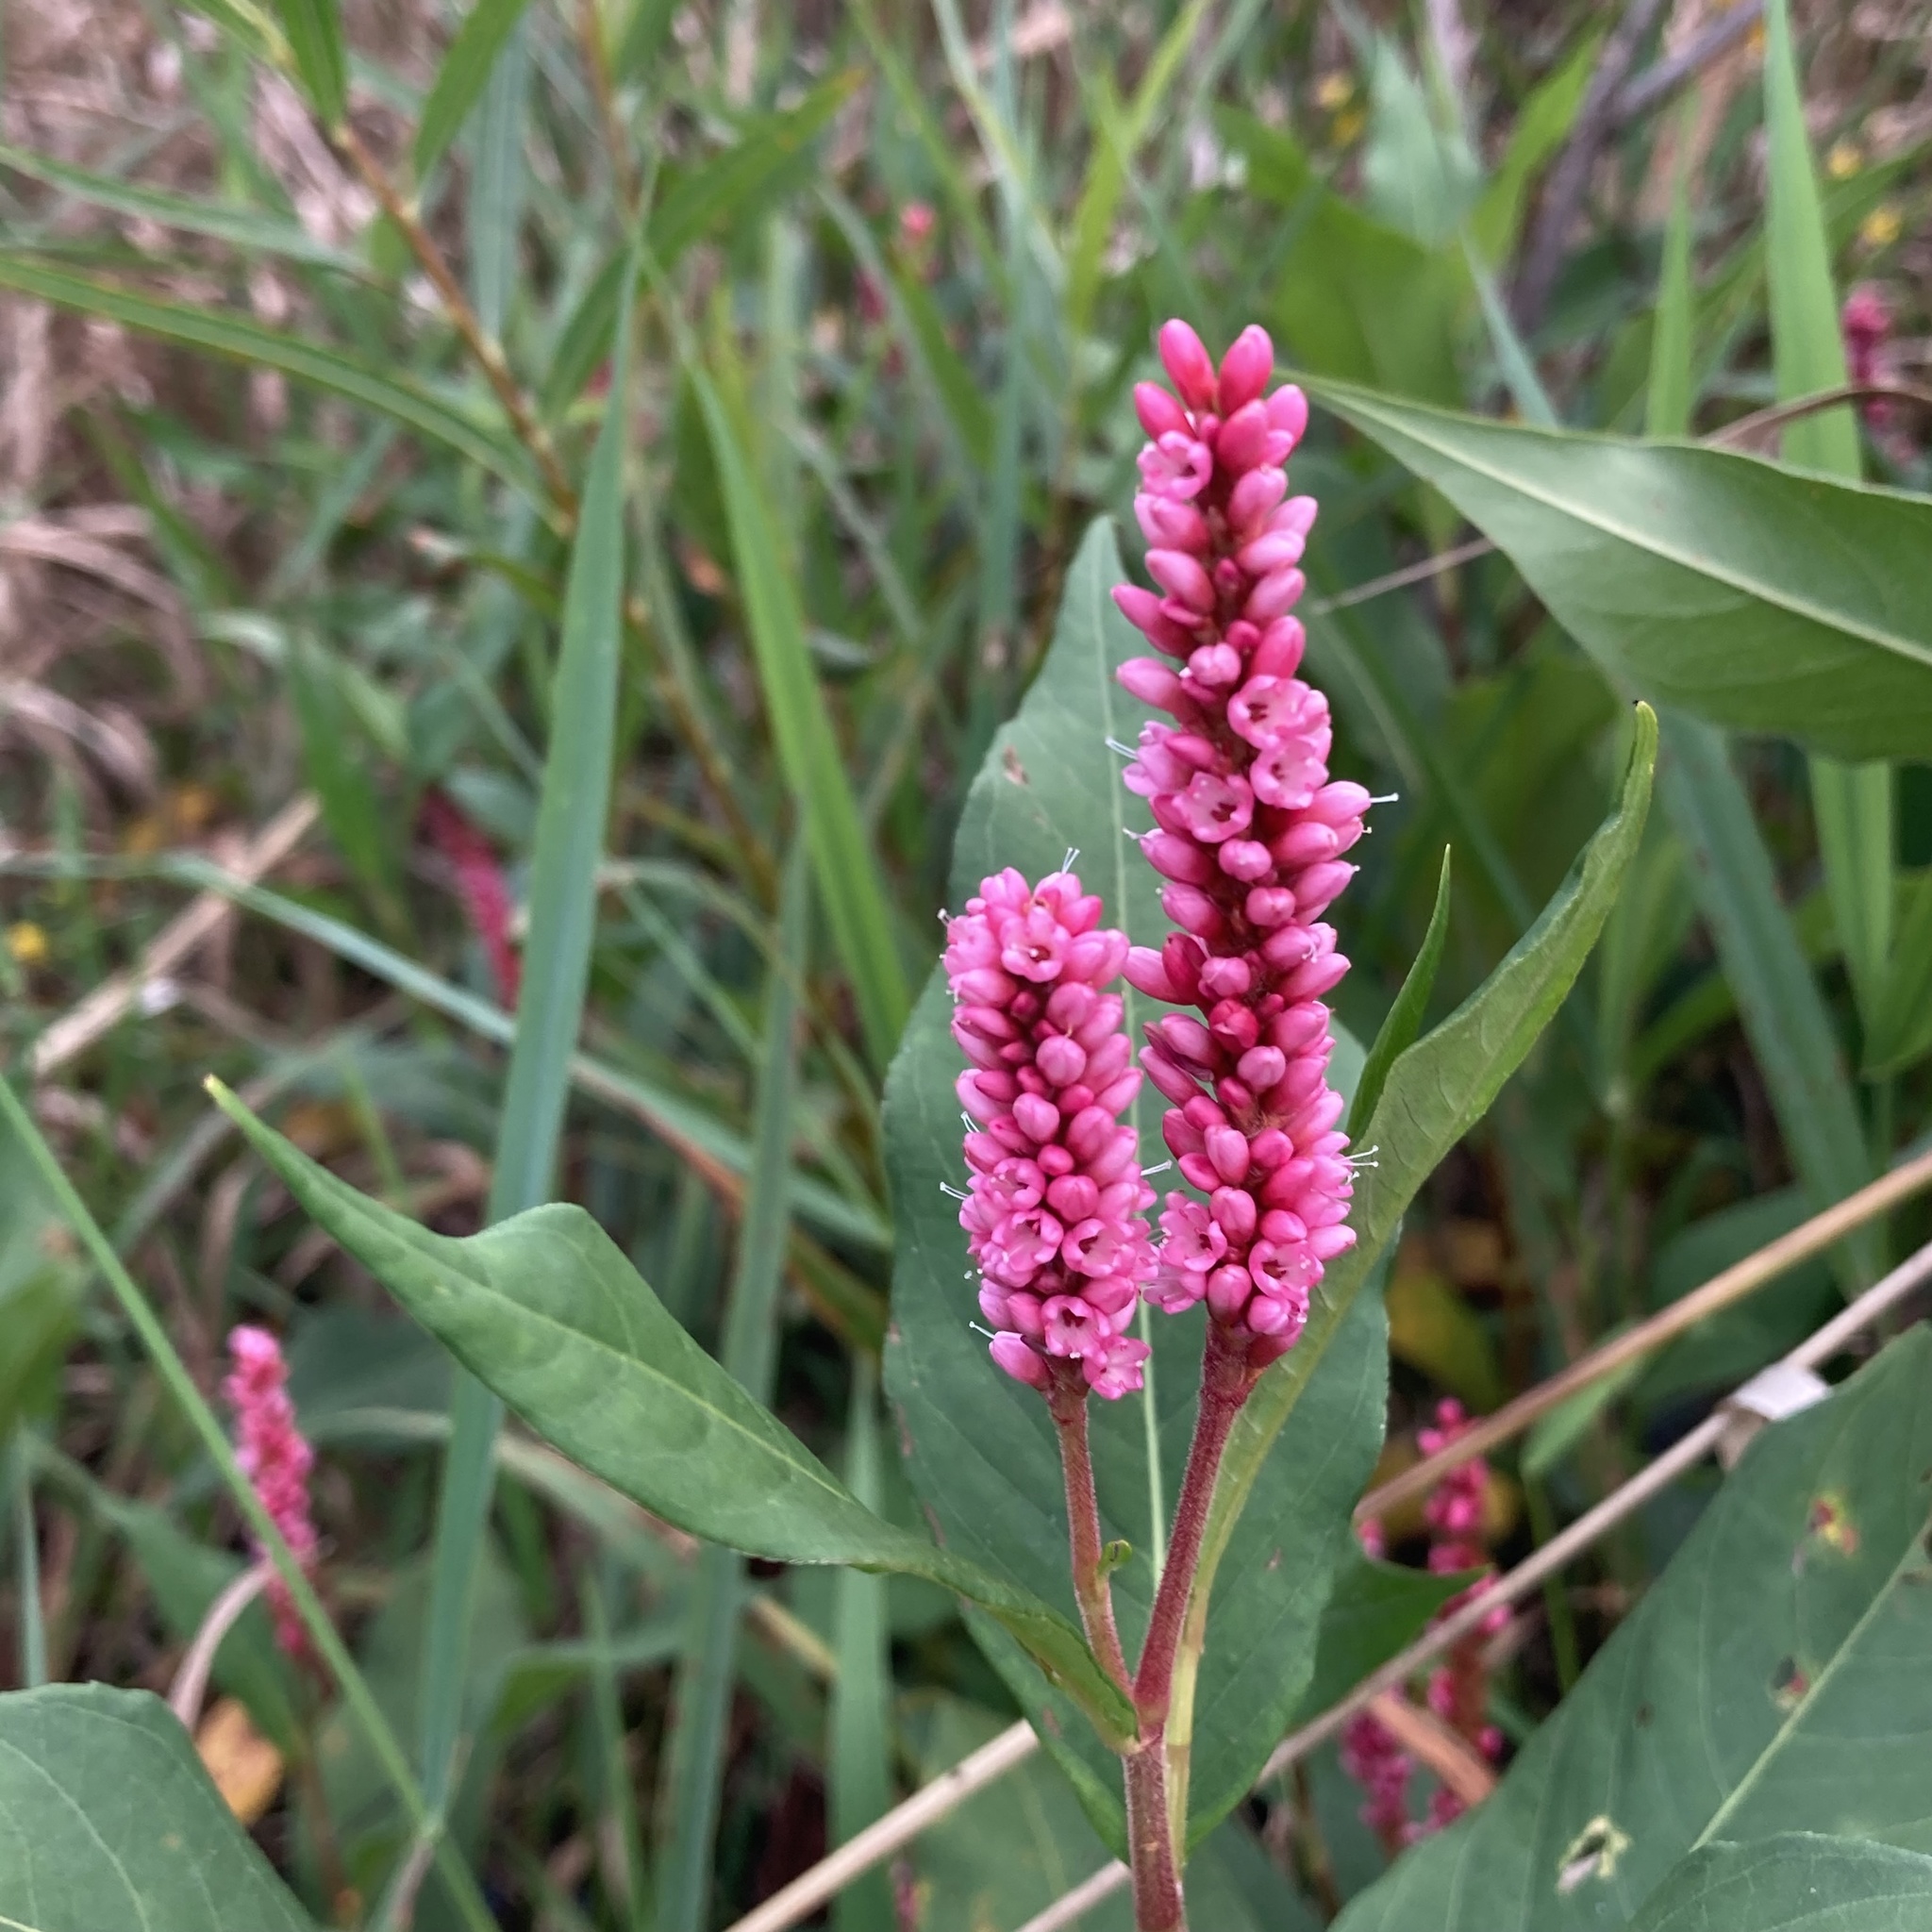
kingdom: Plantae
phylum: Tracheophyta
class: Magnoliopsida
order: Caryophyllales
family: Polygonaceae
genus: Persicaria
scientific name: Persicaria amphibia
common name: Amphibious bistort
